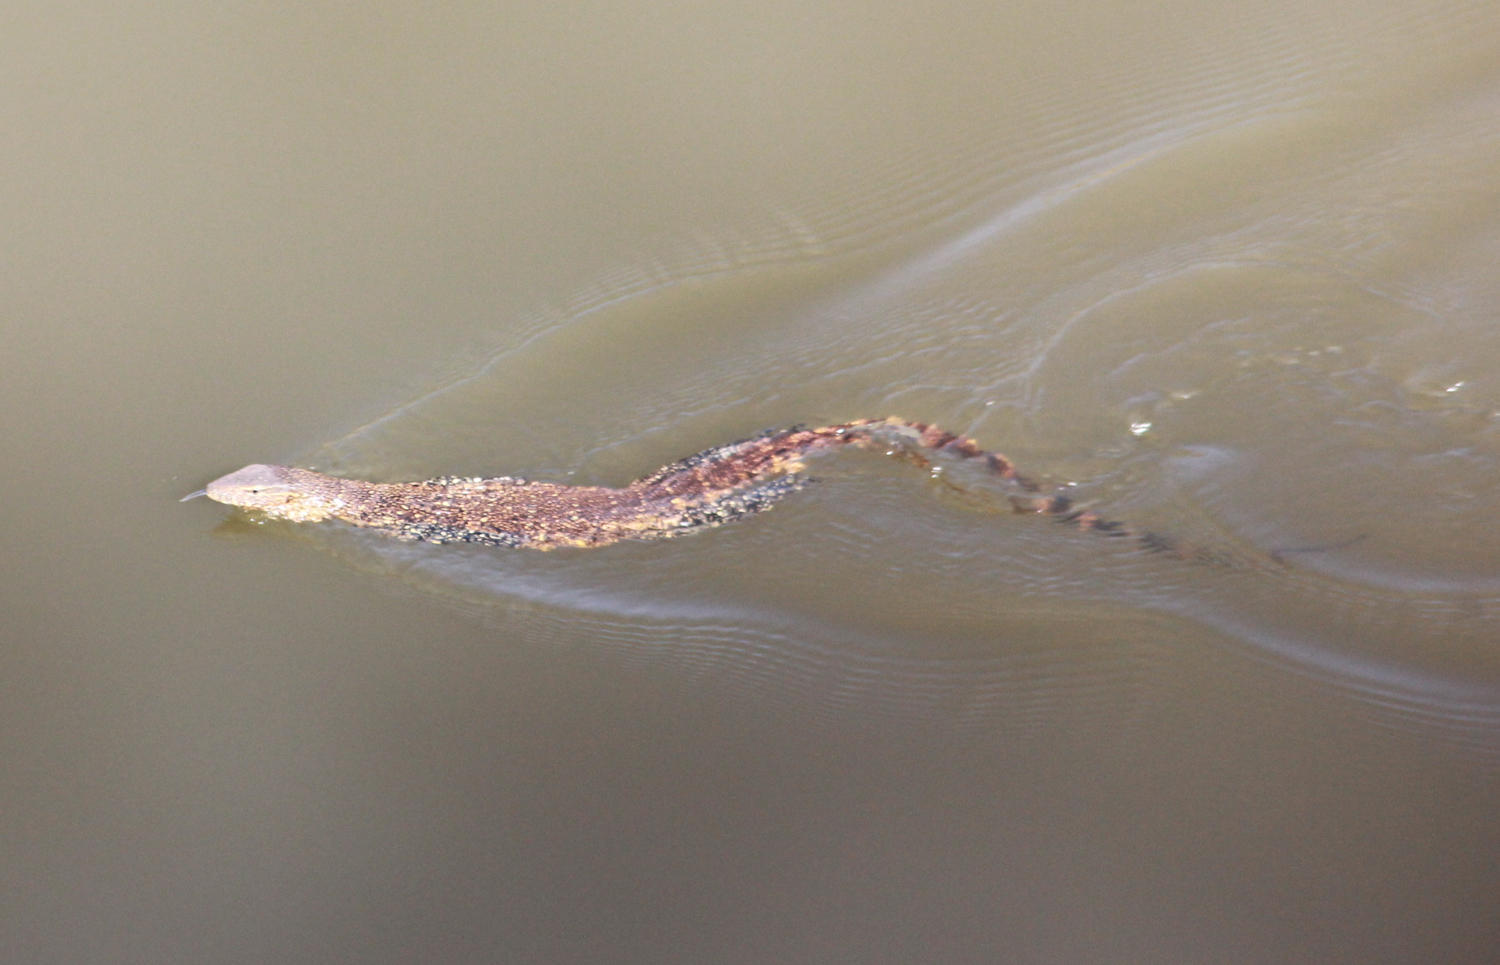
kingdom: Animalia
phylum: Chordata
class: Squamata
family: Varanidae
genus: Varanus
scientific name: Varanus niloticus
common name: Nile monitor
